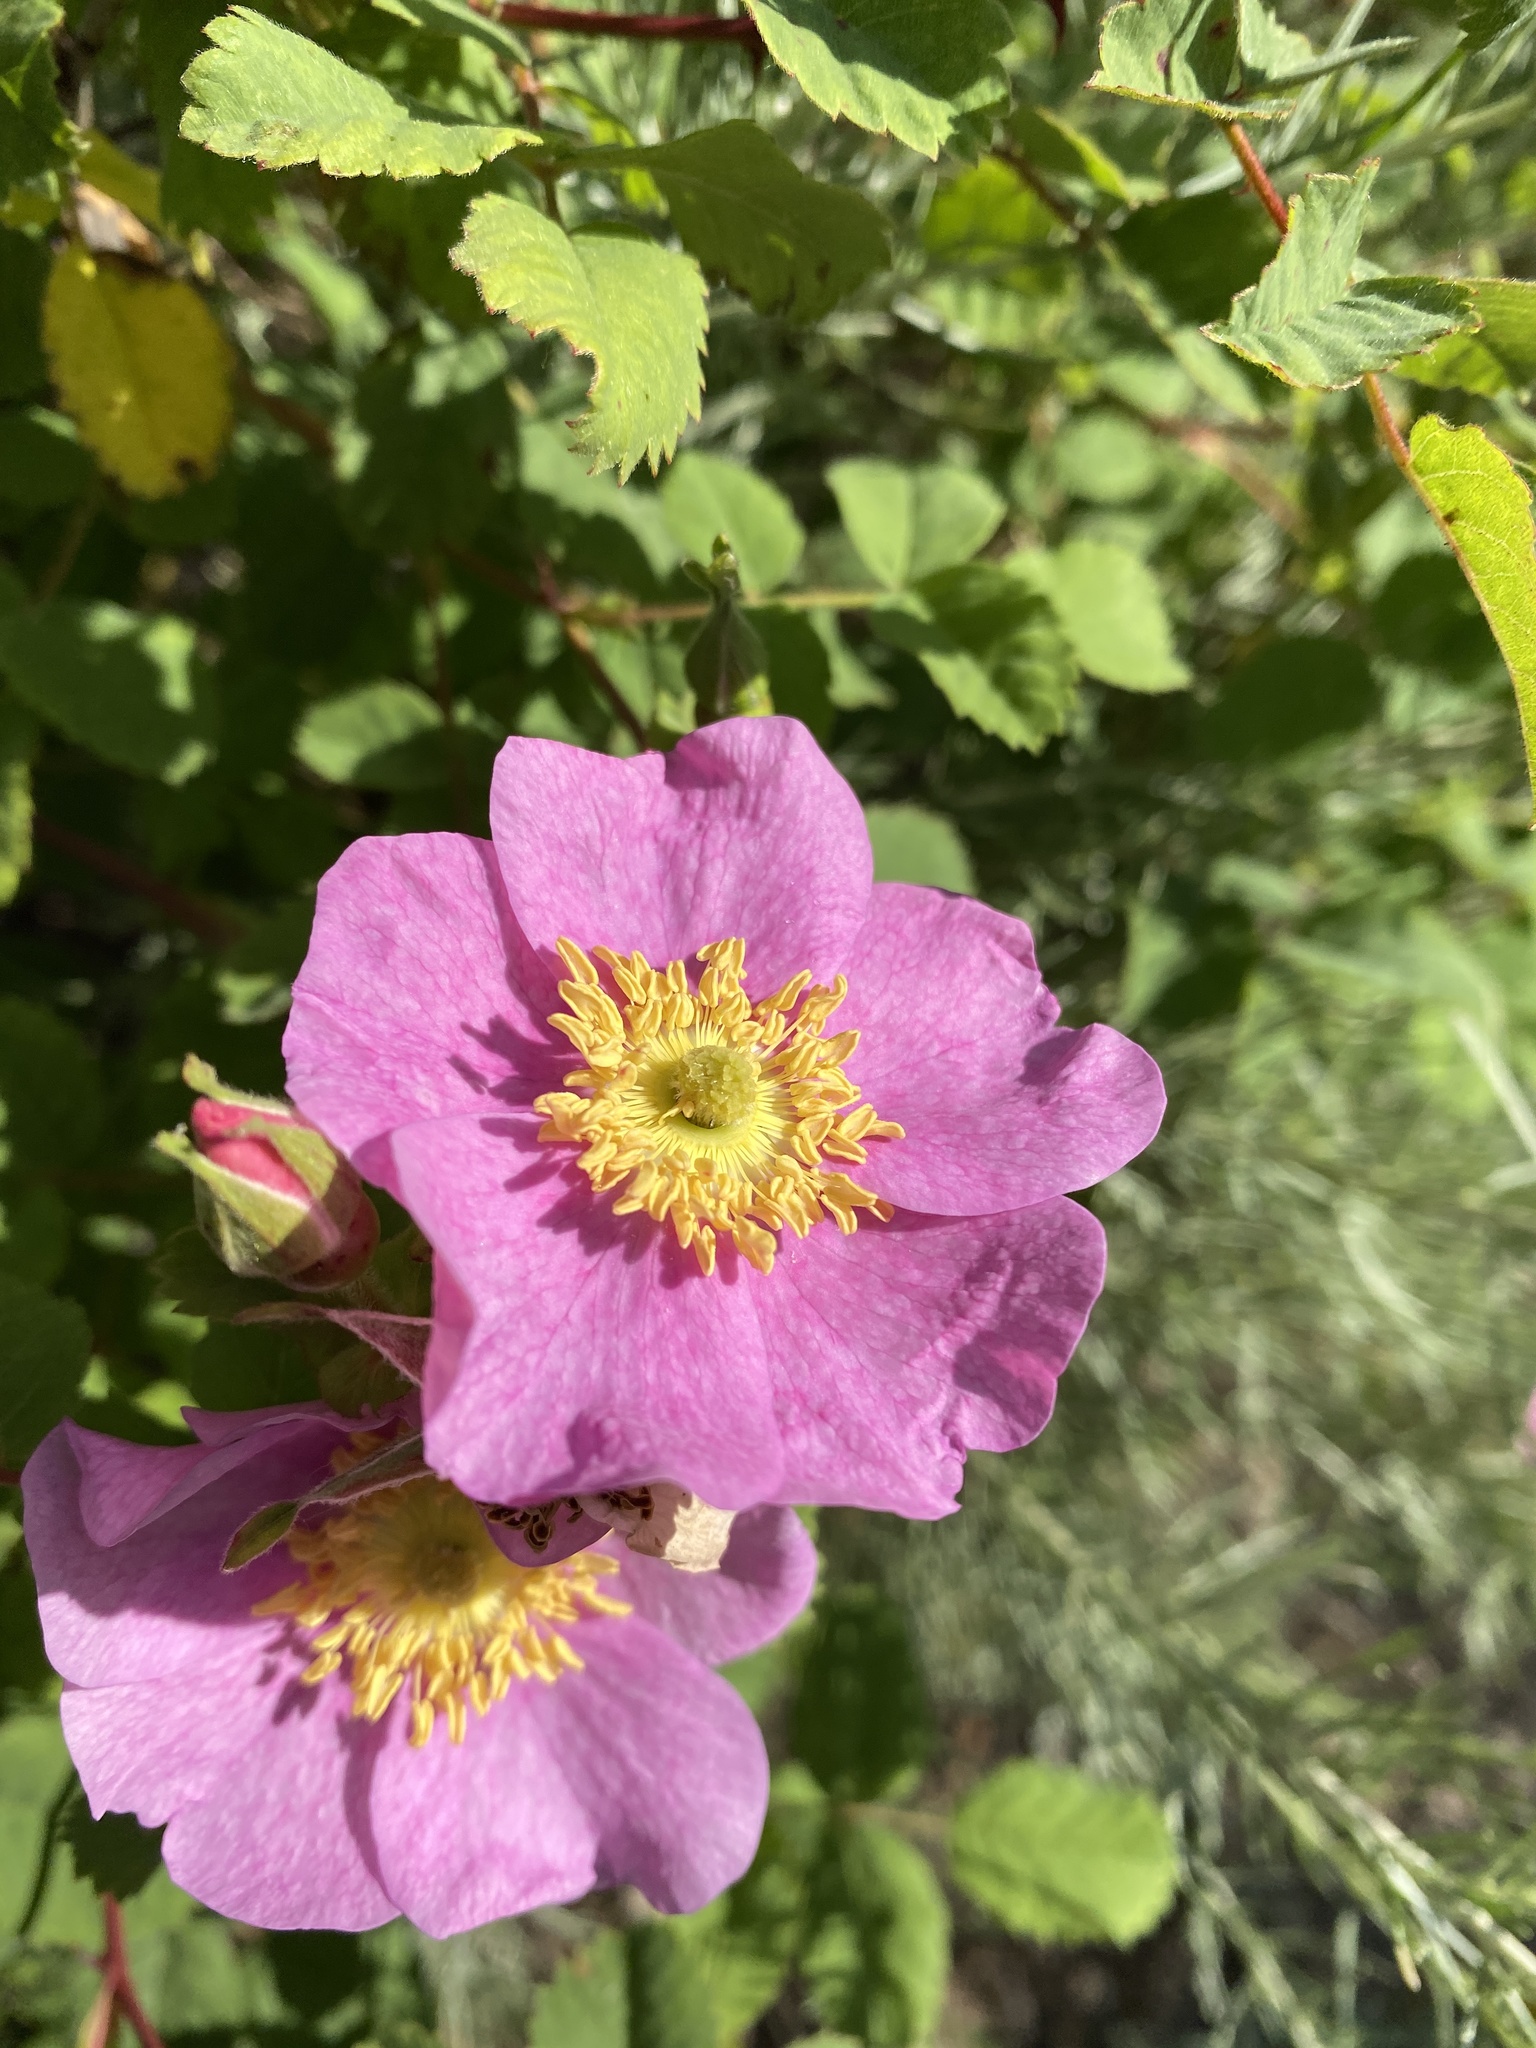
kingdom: Plantae
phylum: Tracheophyta
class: Magnoliopsida
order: Rosales
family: Rosaceae
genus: Rosa
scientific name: Rosa californica
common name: California rose
